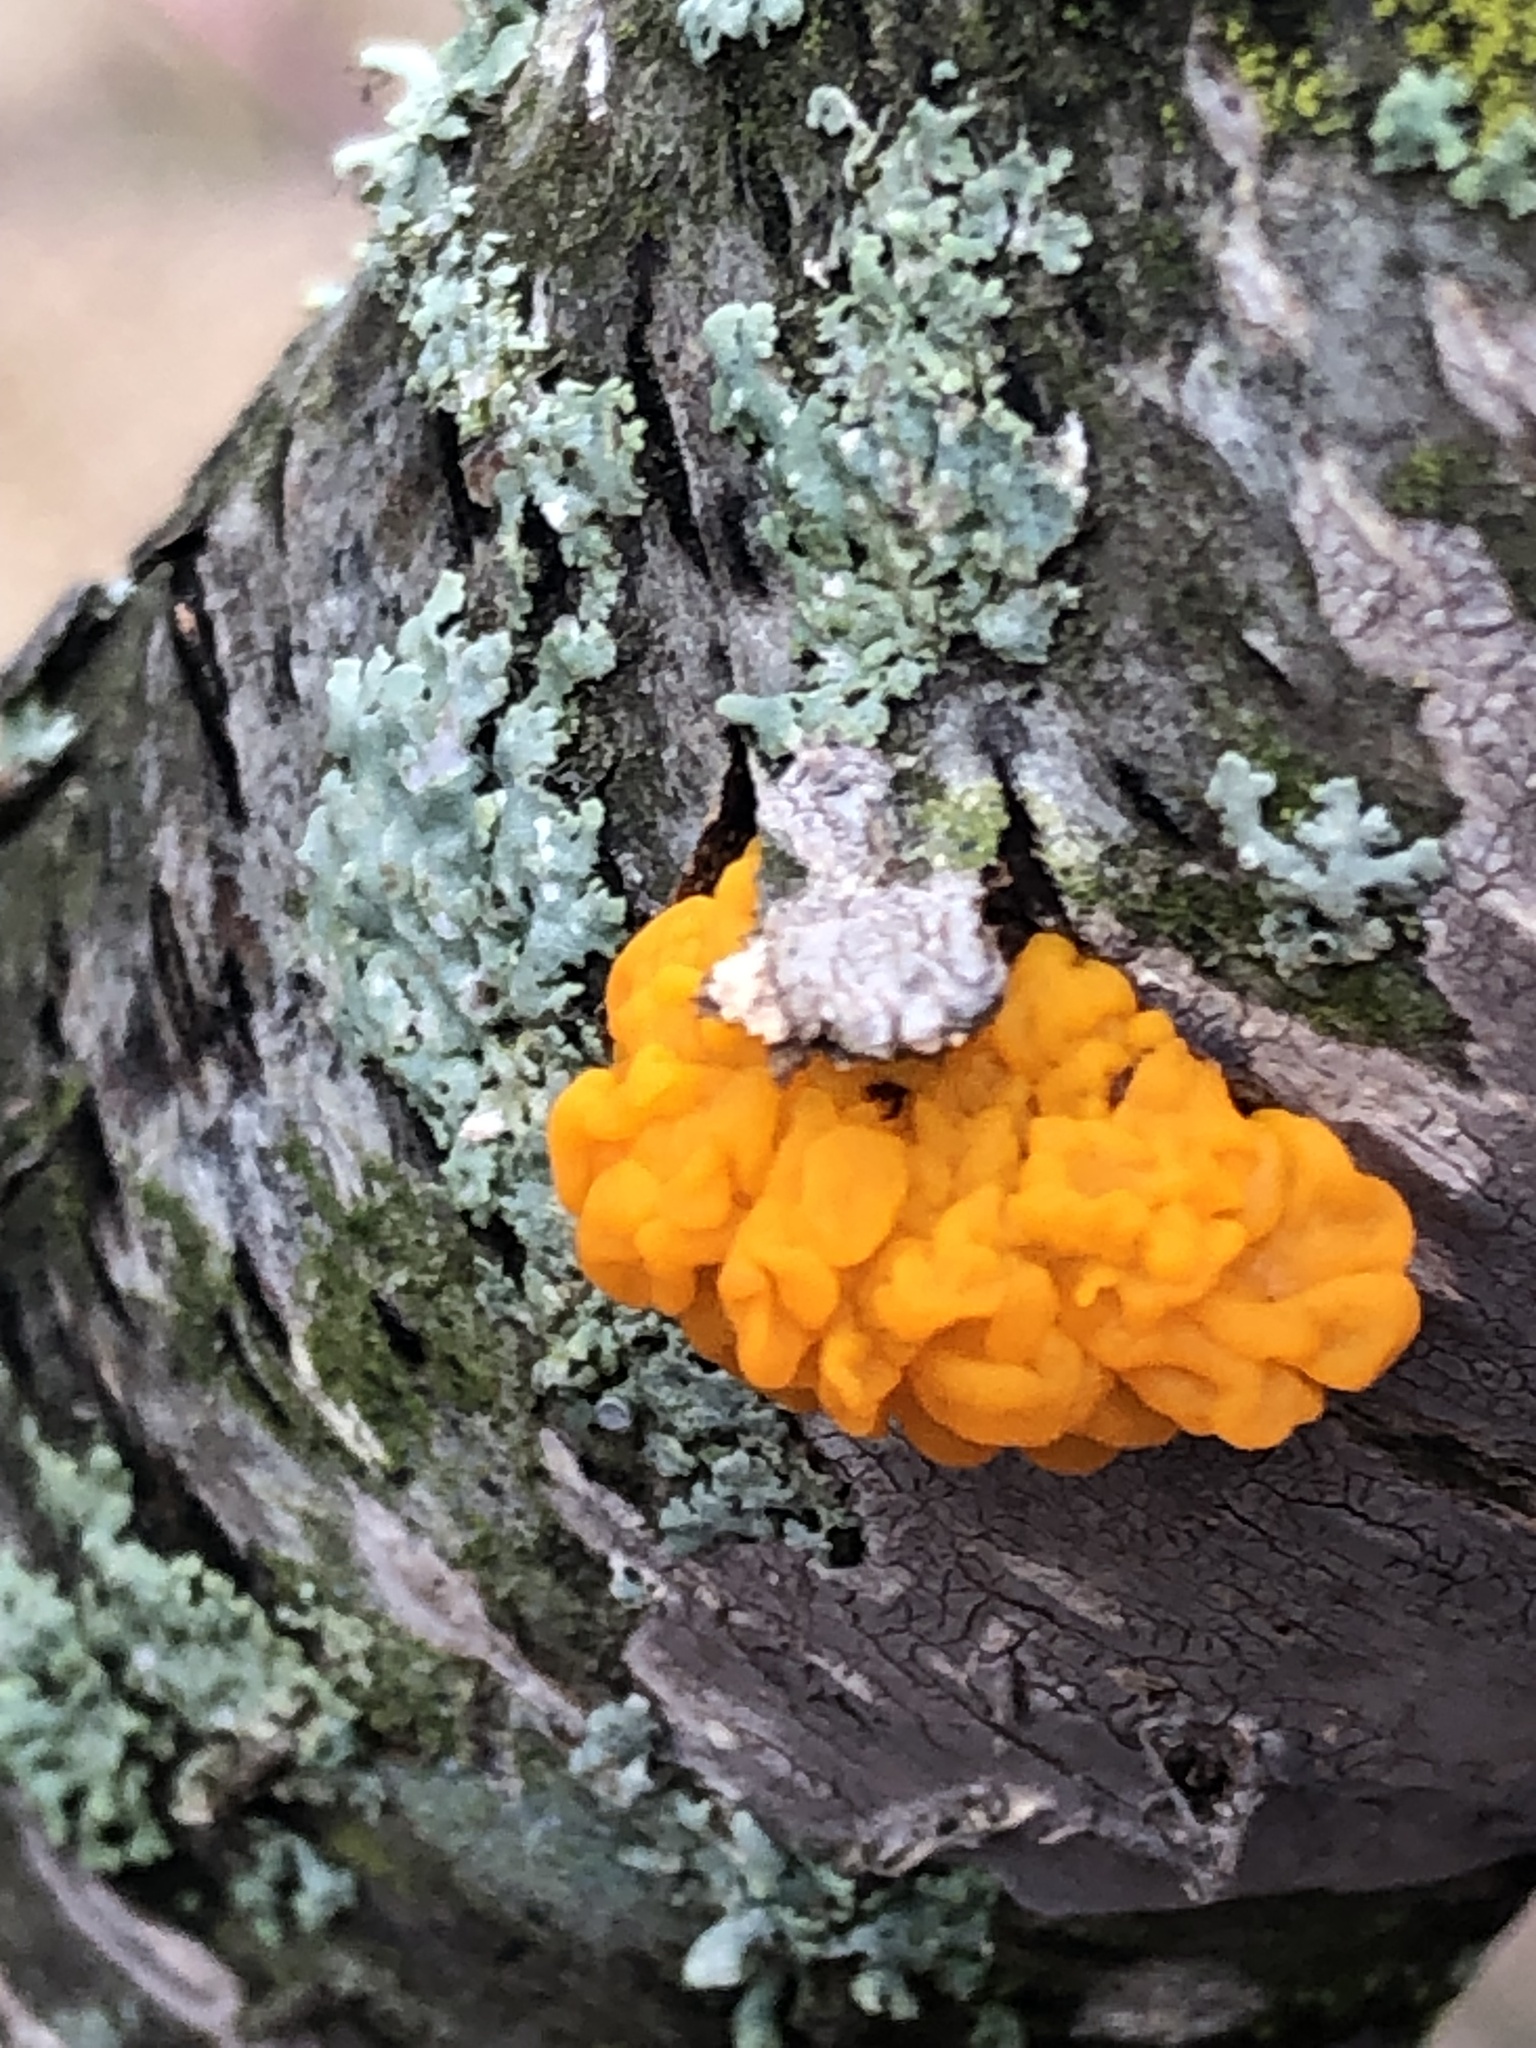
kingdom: Fungi
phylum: Basidiomycota
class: Dacrymycetes
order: Dacrymycetales
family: Dacrymycetaceae
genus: Dacrymyces
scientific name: Dacrymyces chrysospermus
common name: Orange jelly spot
